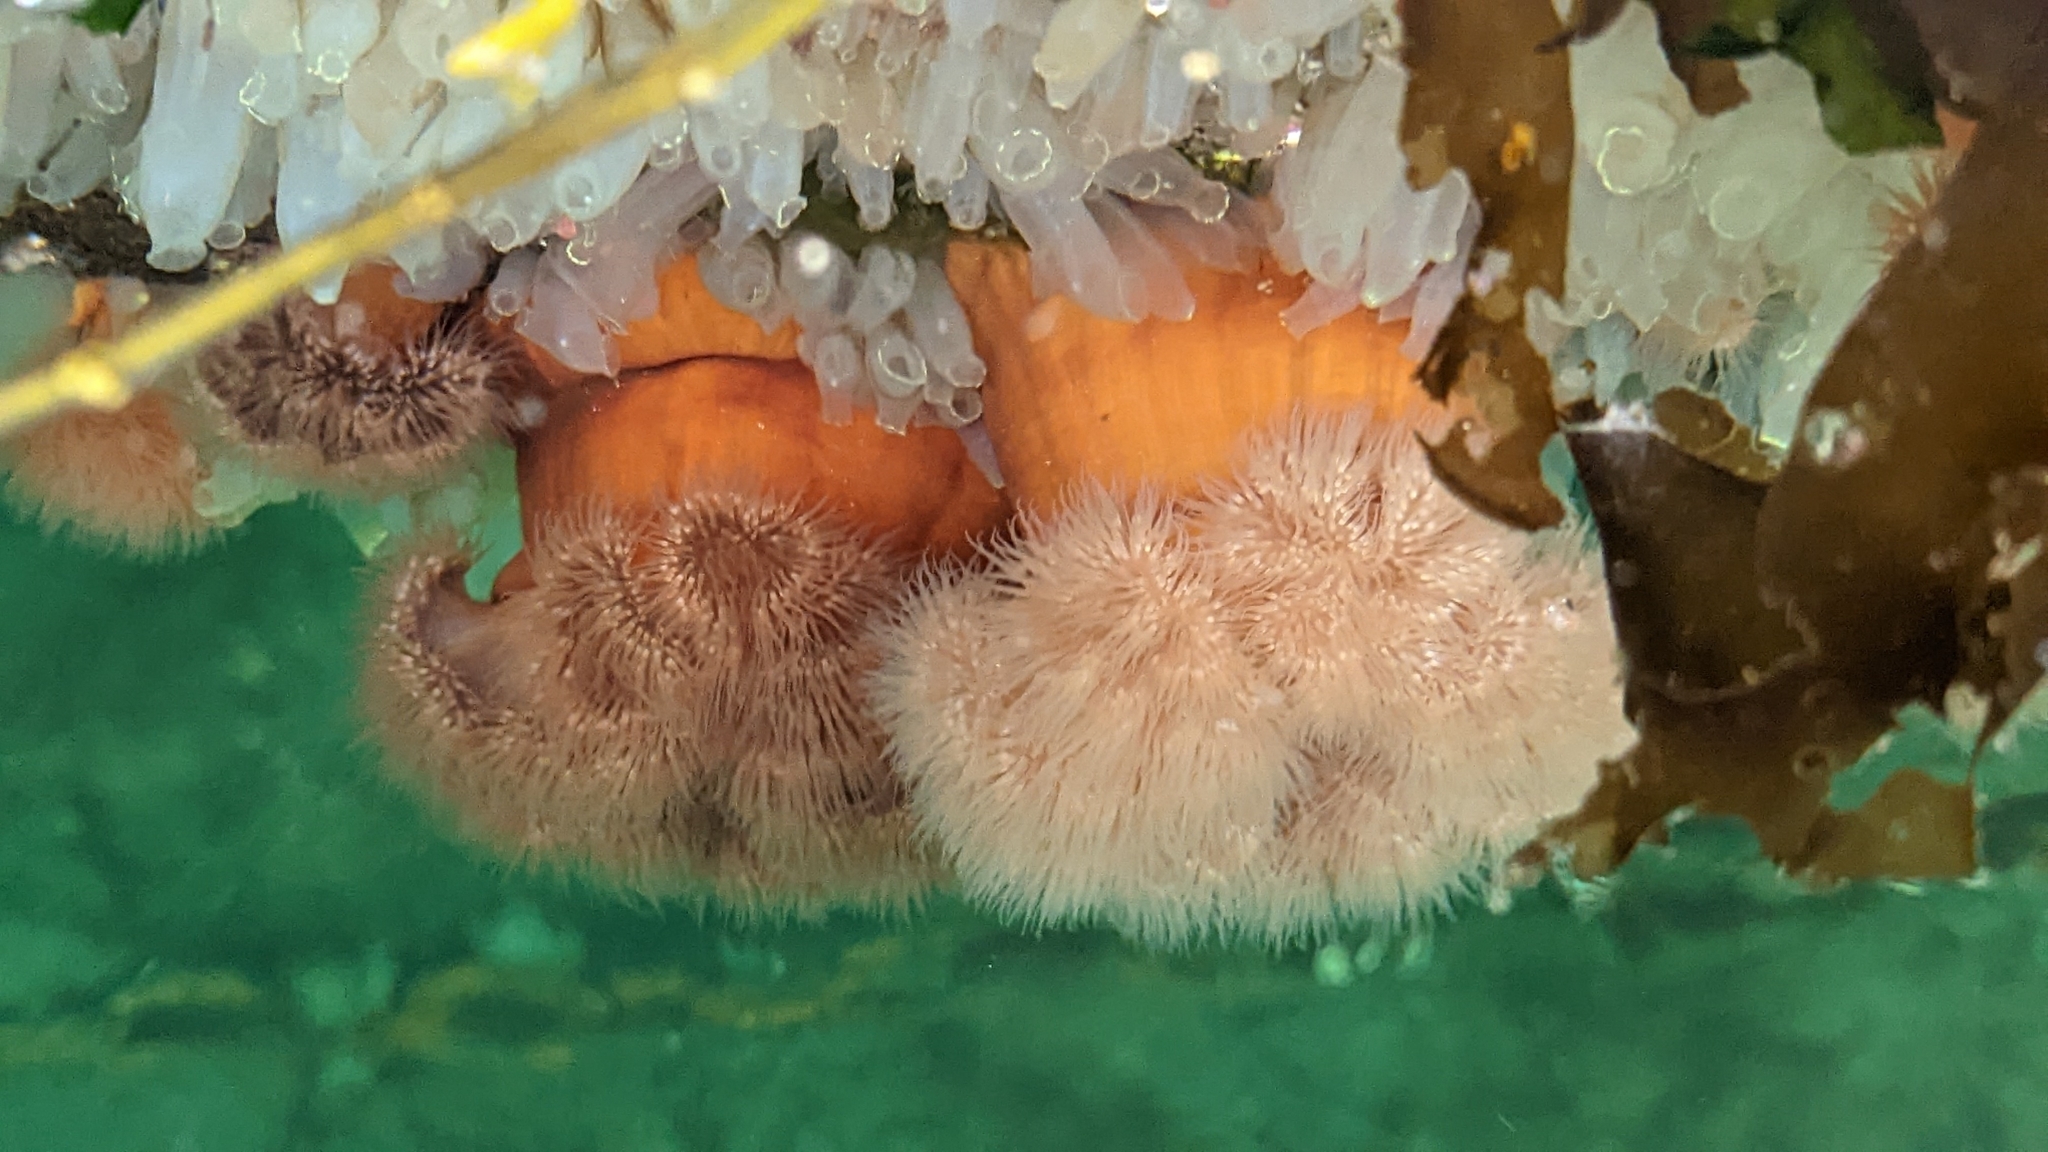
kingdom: Animalia
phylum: Cnidaria
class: Anthozoa
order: Actiniaria
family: Metridiidae
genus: Metridium
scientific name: Metridium senile
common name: Clonal plumose anemone
